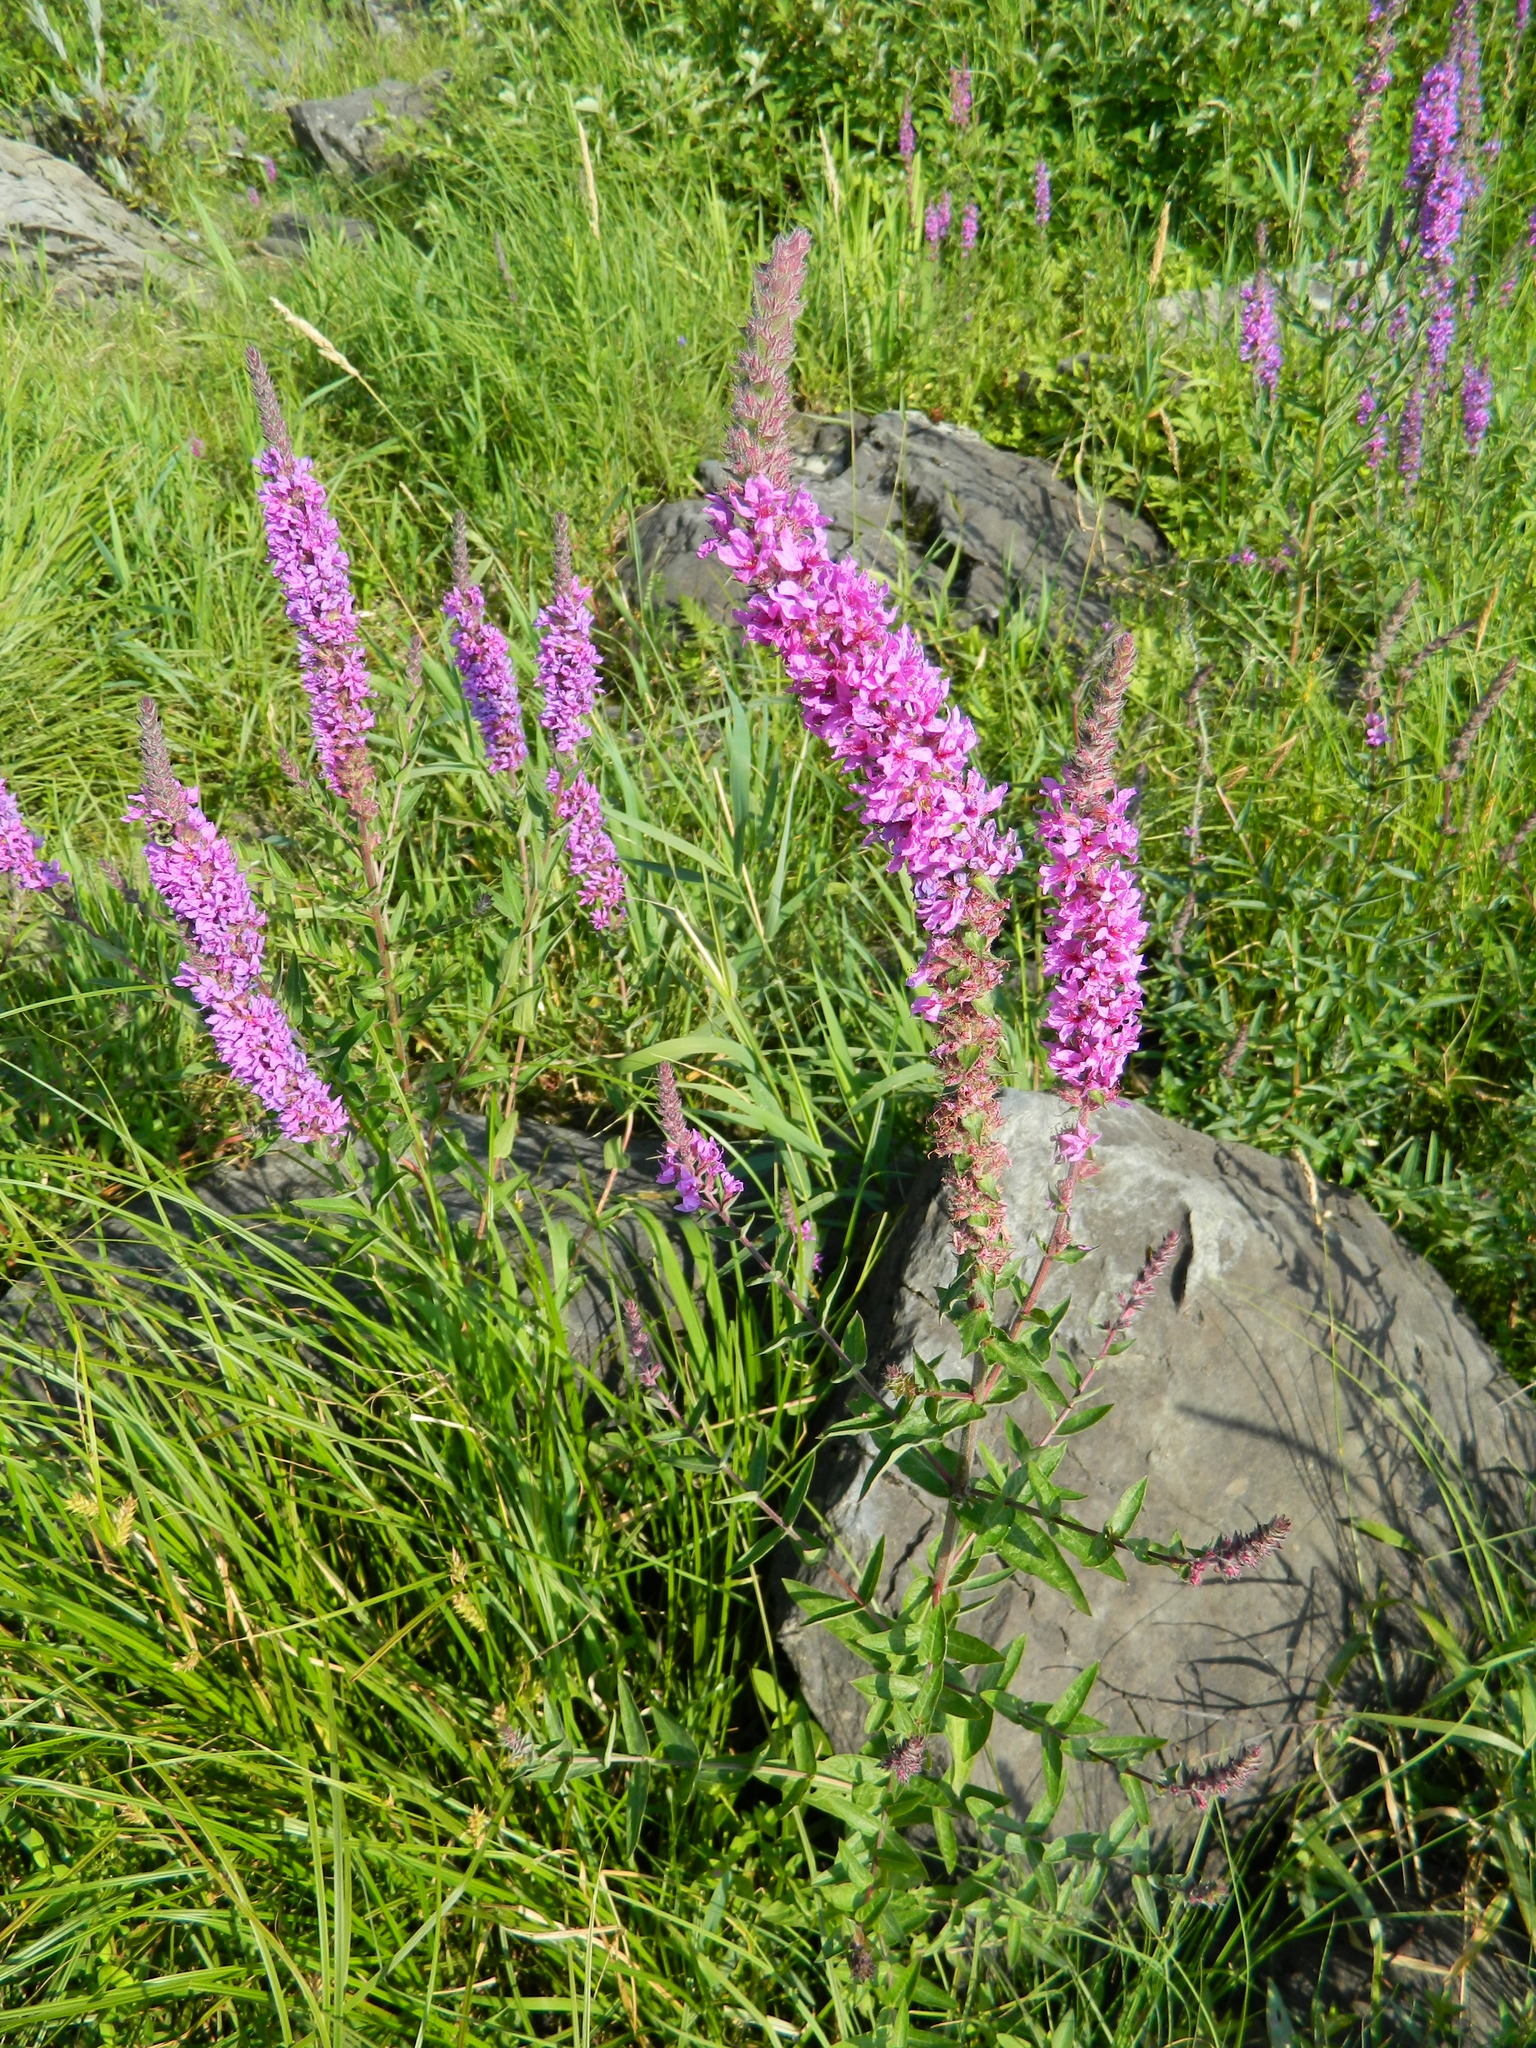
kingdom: Plantae
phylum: Tracheophyta
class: Magnoliopsida
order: Myrtales
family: Lythraceae
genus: Lythrum
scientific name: Lythrum salicaria
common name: Purple loosestrife
